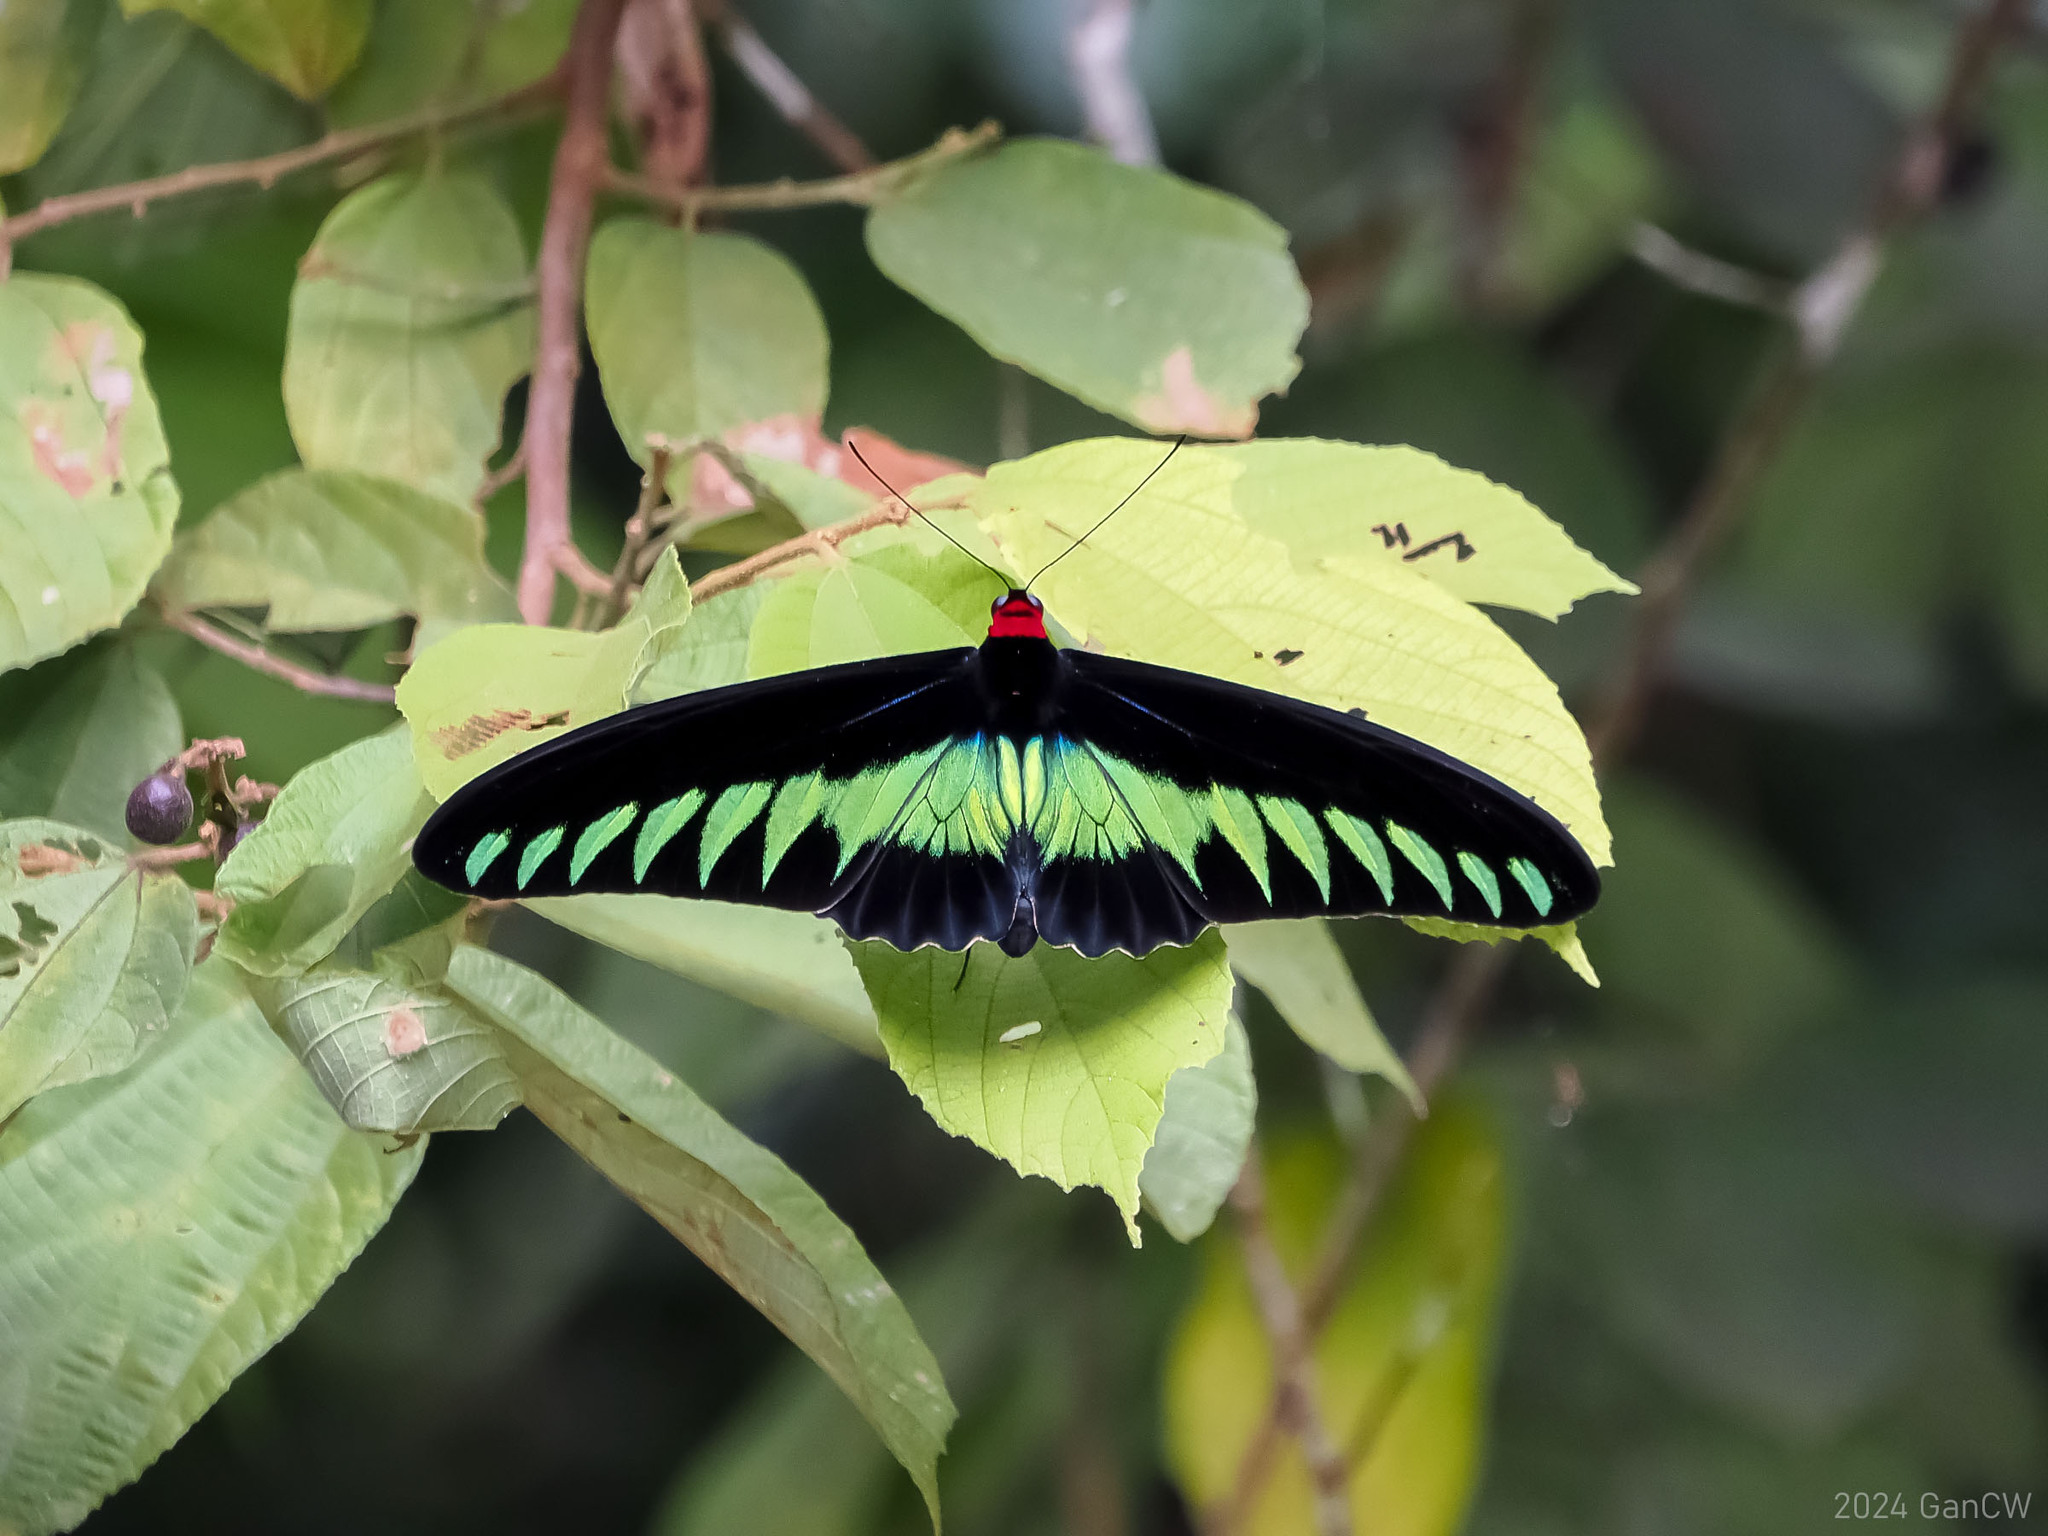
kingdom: Animalia
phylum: Arthropoda
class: Insecta
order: Lepidoptera
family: Papilionidae
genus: Trogonoptera
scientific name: Trogonoptera brookiana
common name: Raja brooke's birdwing
